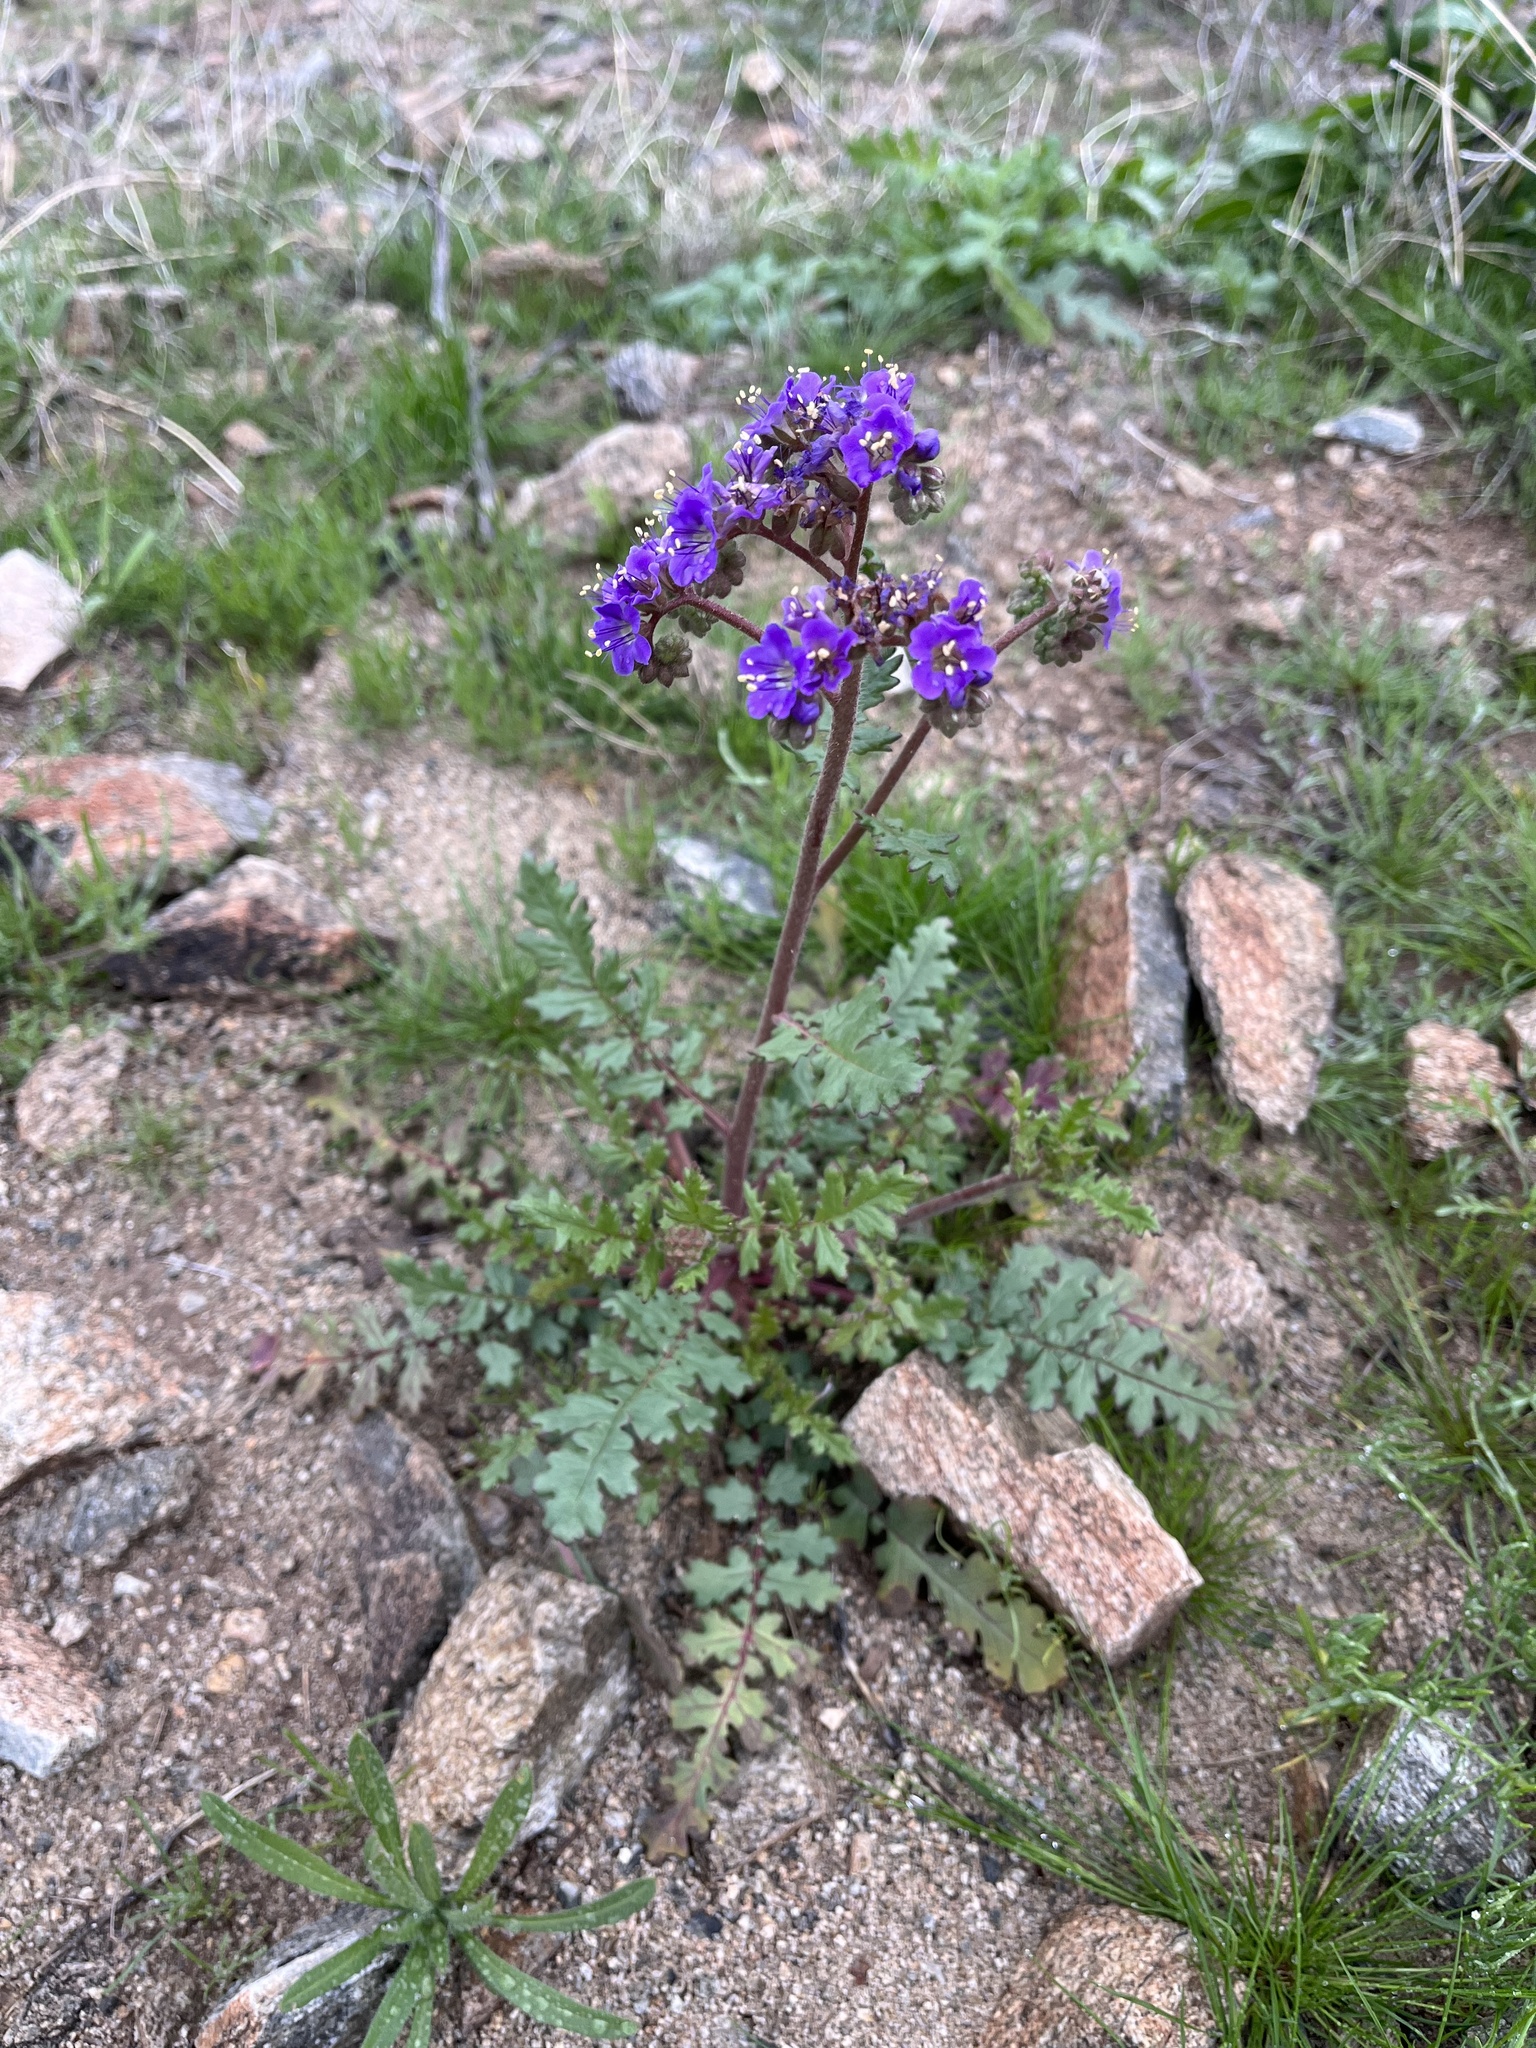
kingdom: Plantae
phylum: Tracheophyta
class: Magnoliopsida
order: Boraginales
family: Hydrophyllaceae
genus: Phacelia
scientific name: Phacelia crenulata
